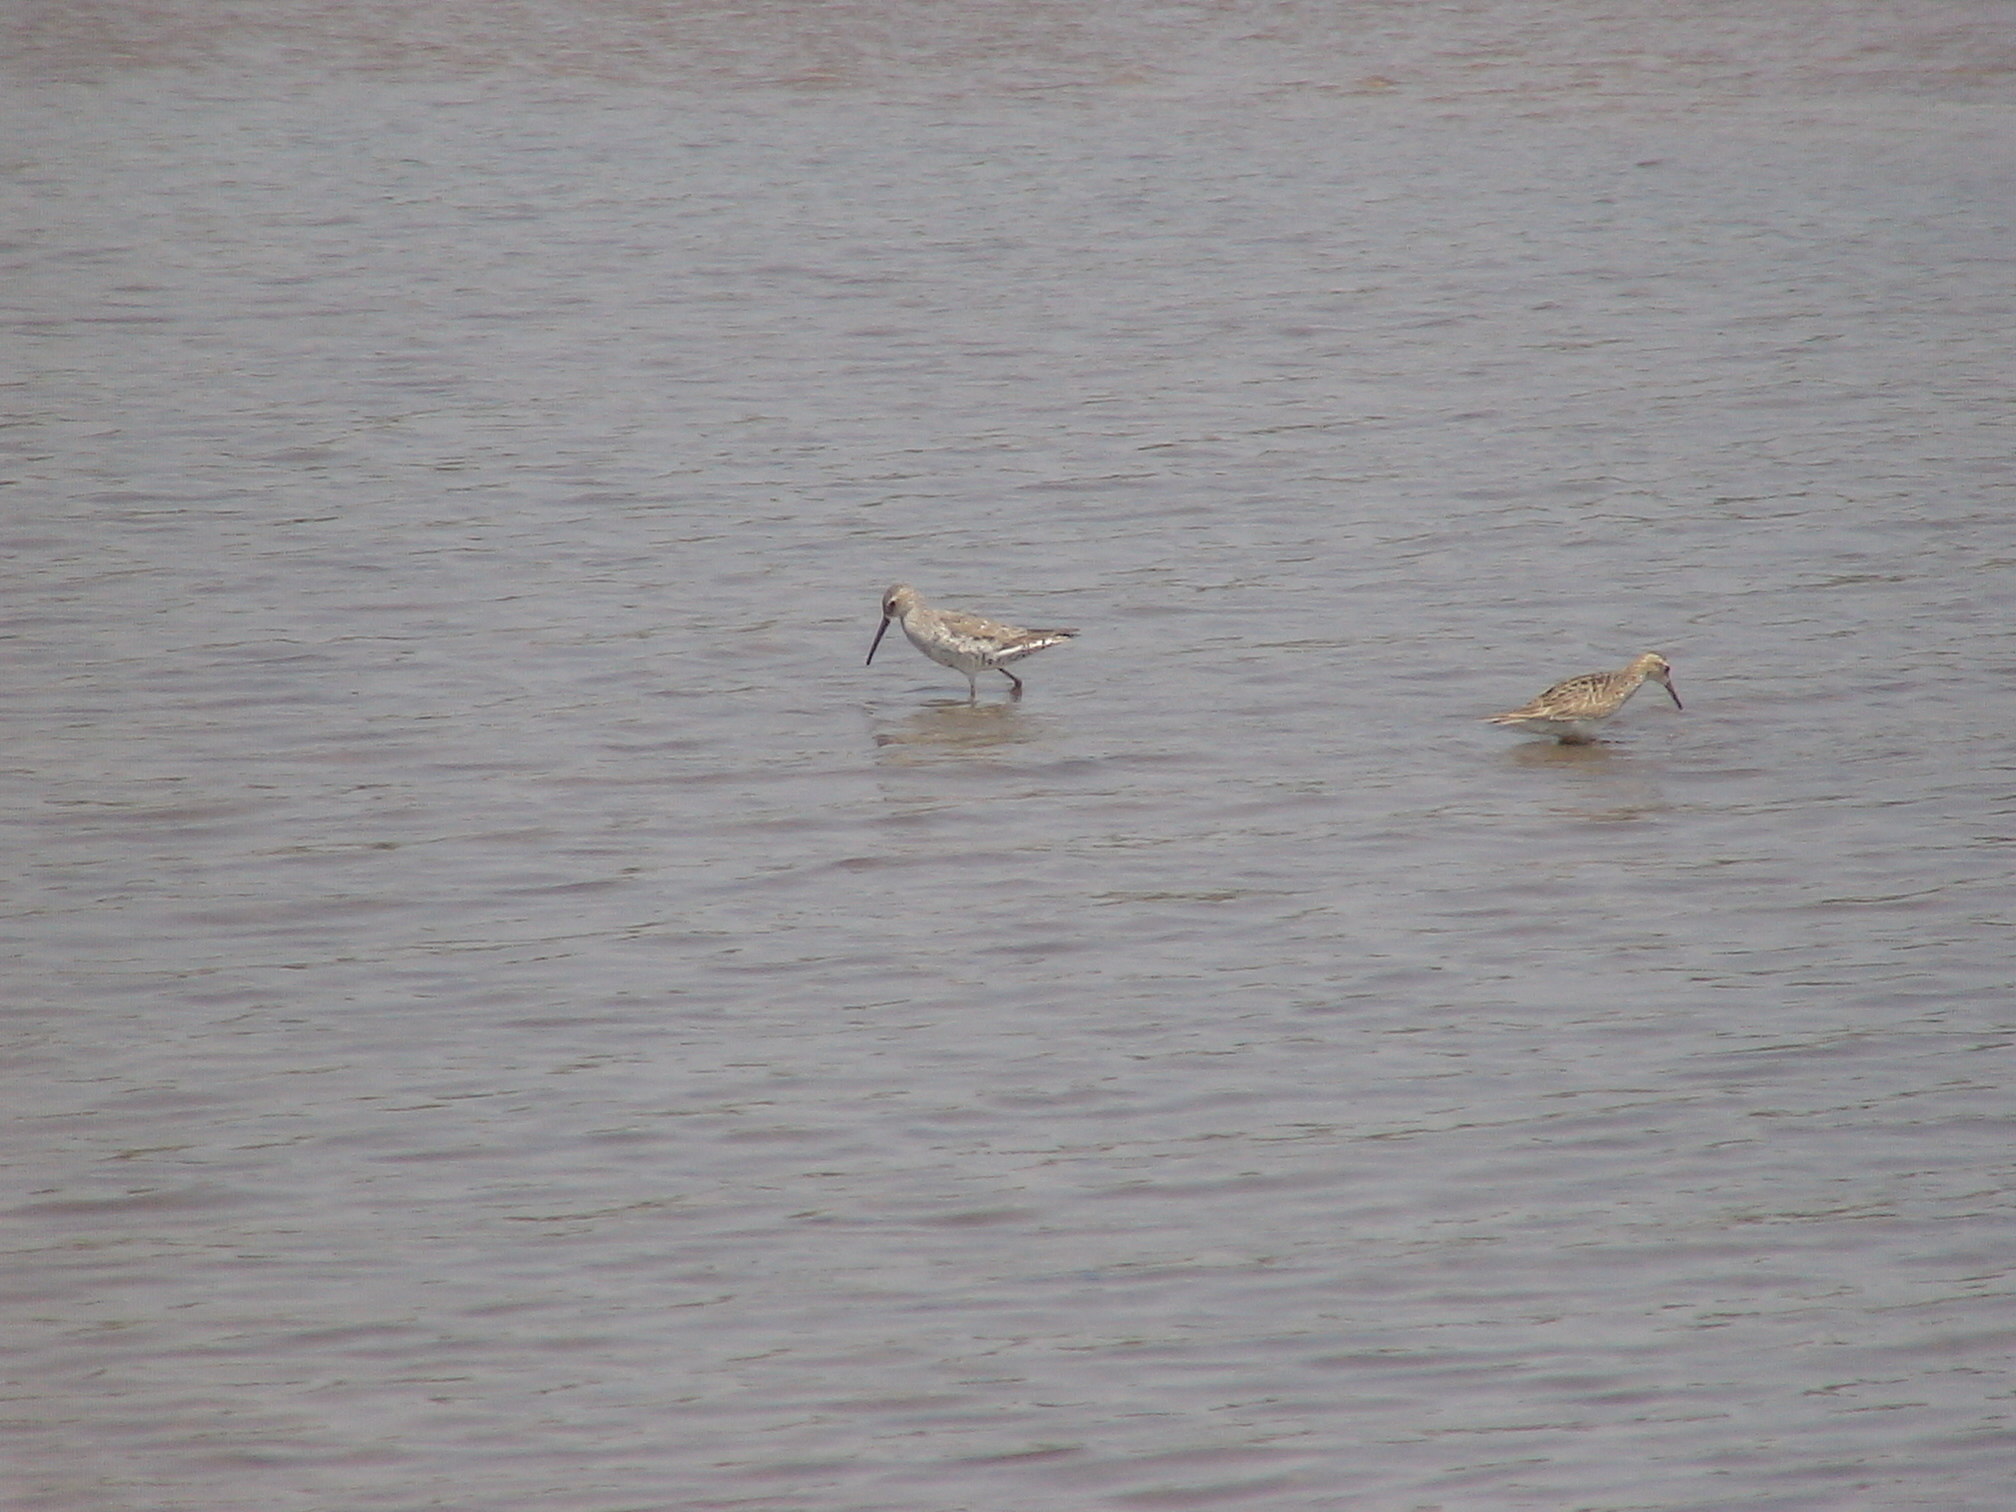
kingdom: Animalia
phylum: Chordata
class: Aves
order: Charadriiformes
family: Scolopacidae
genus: Calidris
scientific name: Calidris himantopus
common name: Stilt sandpiper
